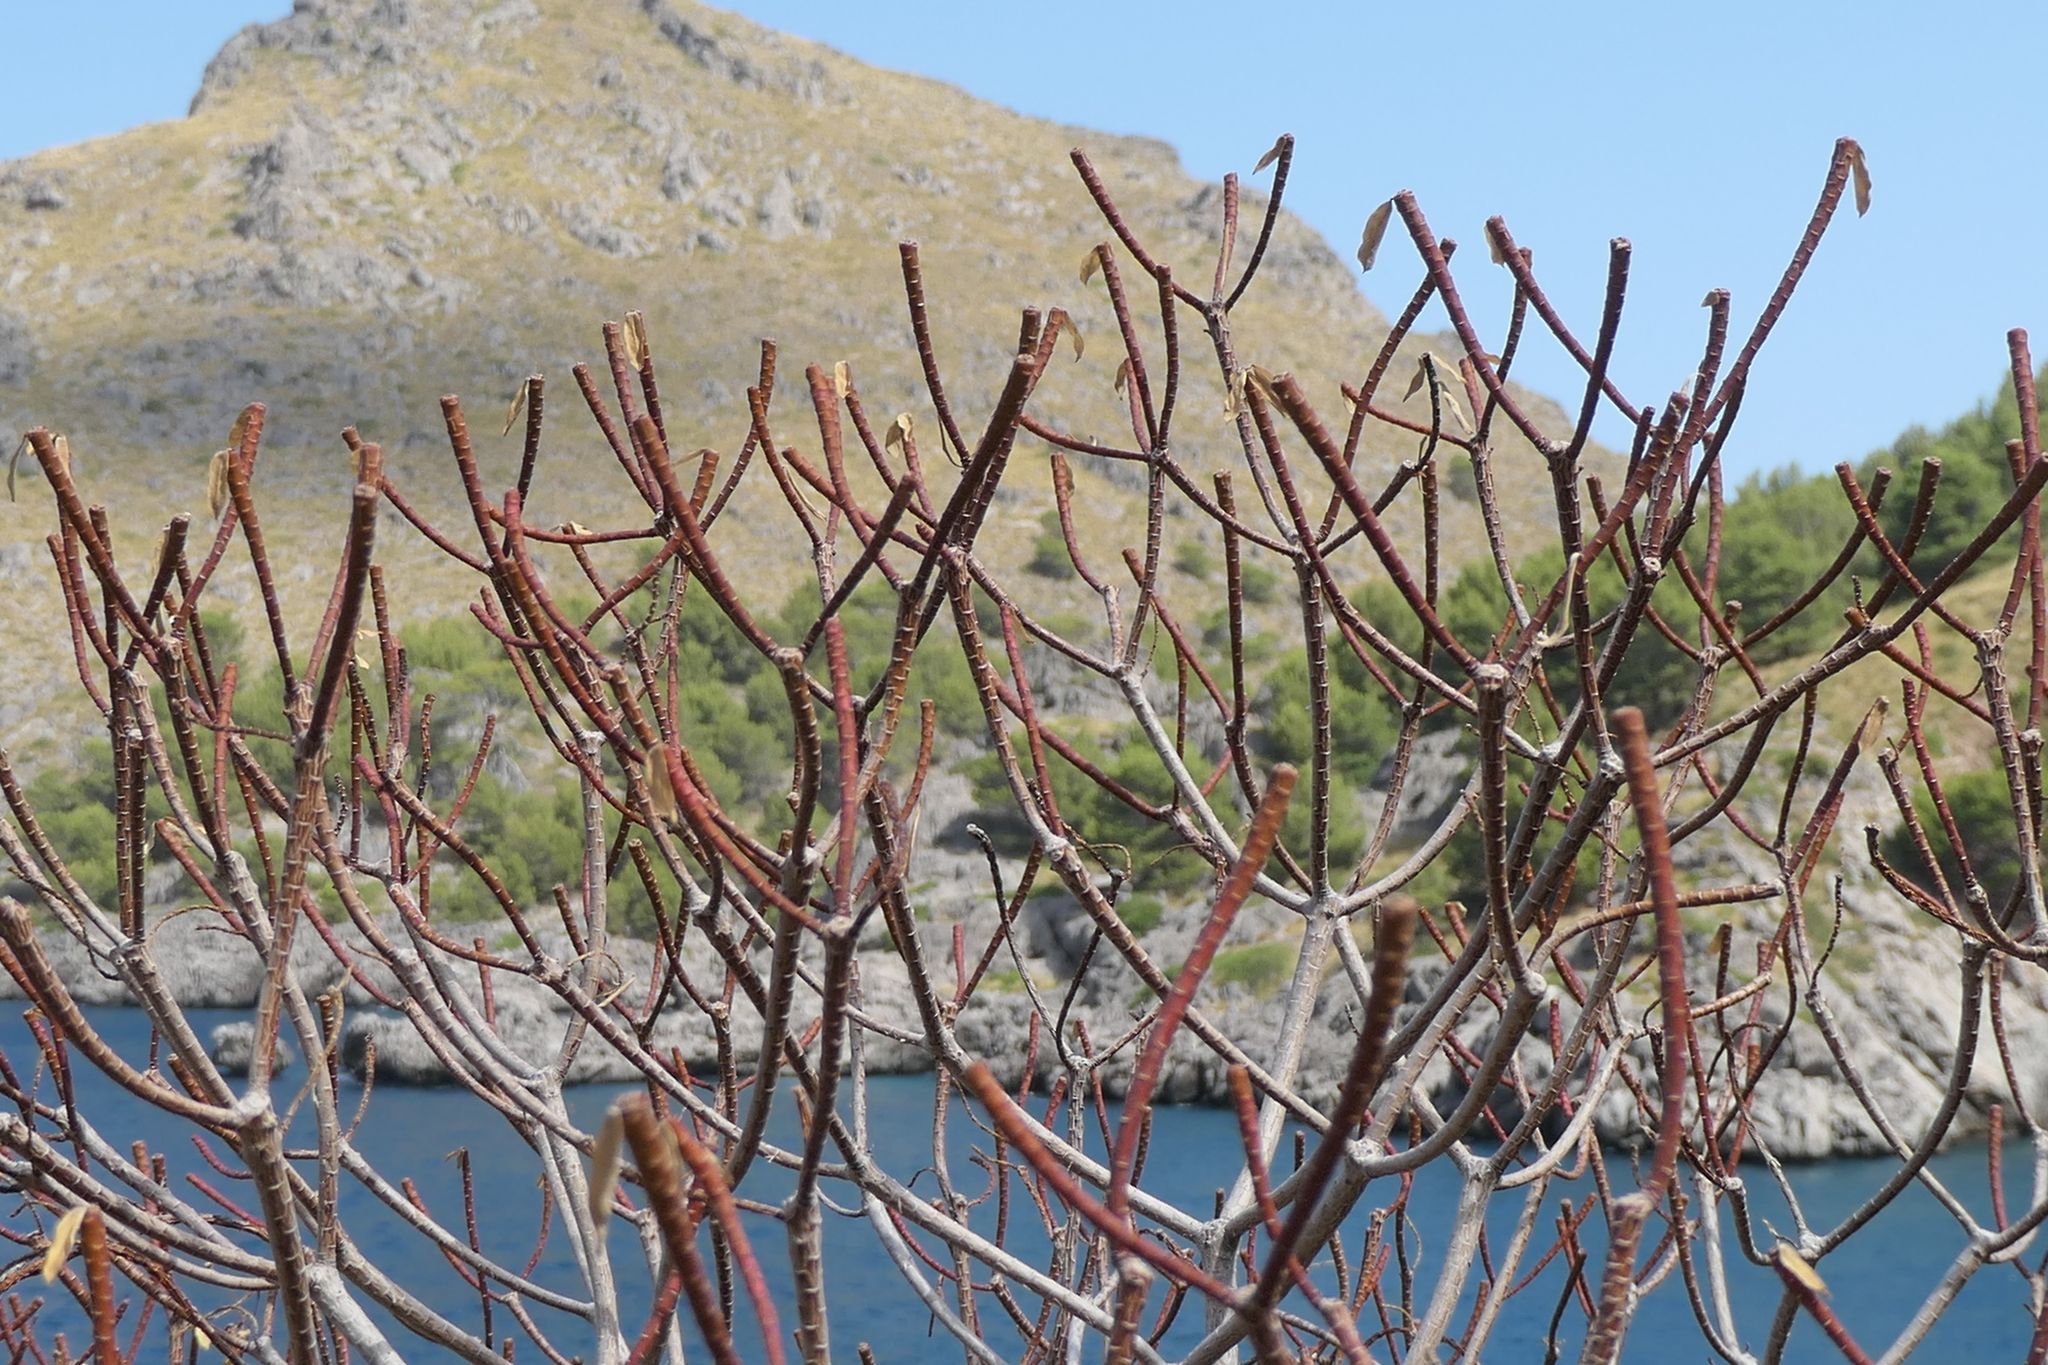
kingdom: Plantae
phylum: Tracheophyta
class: Magnoliopsida
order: Malpighiales
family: Euphorbiaceae
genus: Euphorbia
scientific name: Euphorbia dendroides
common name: Tree spurge
